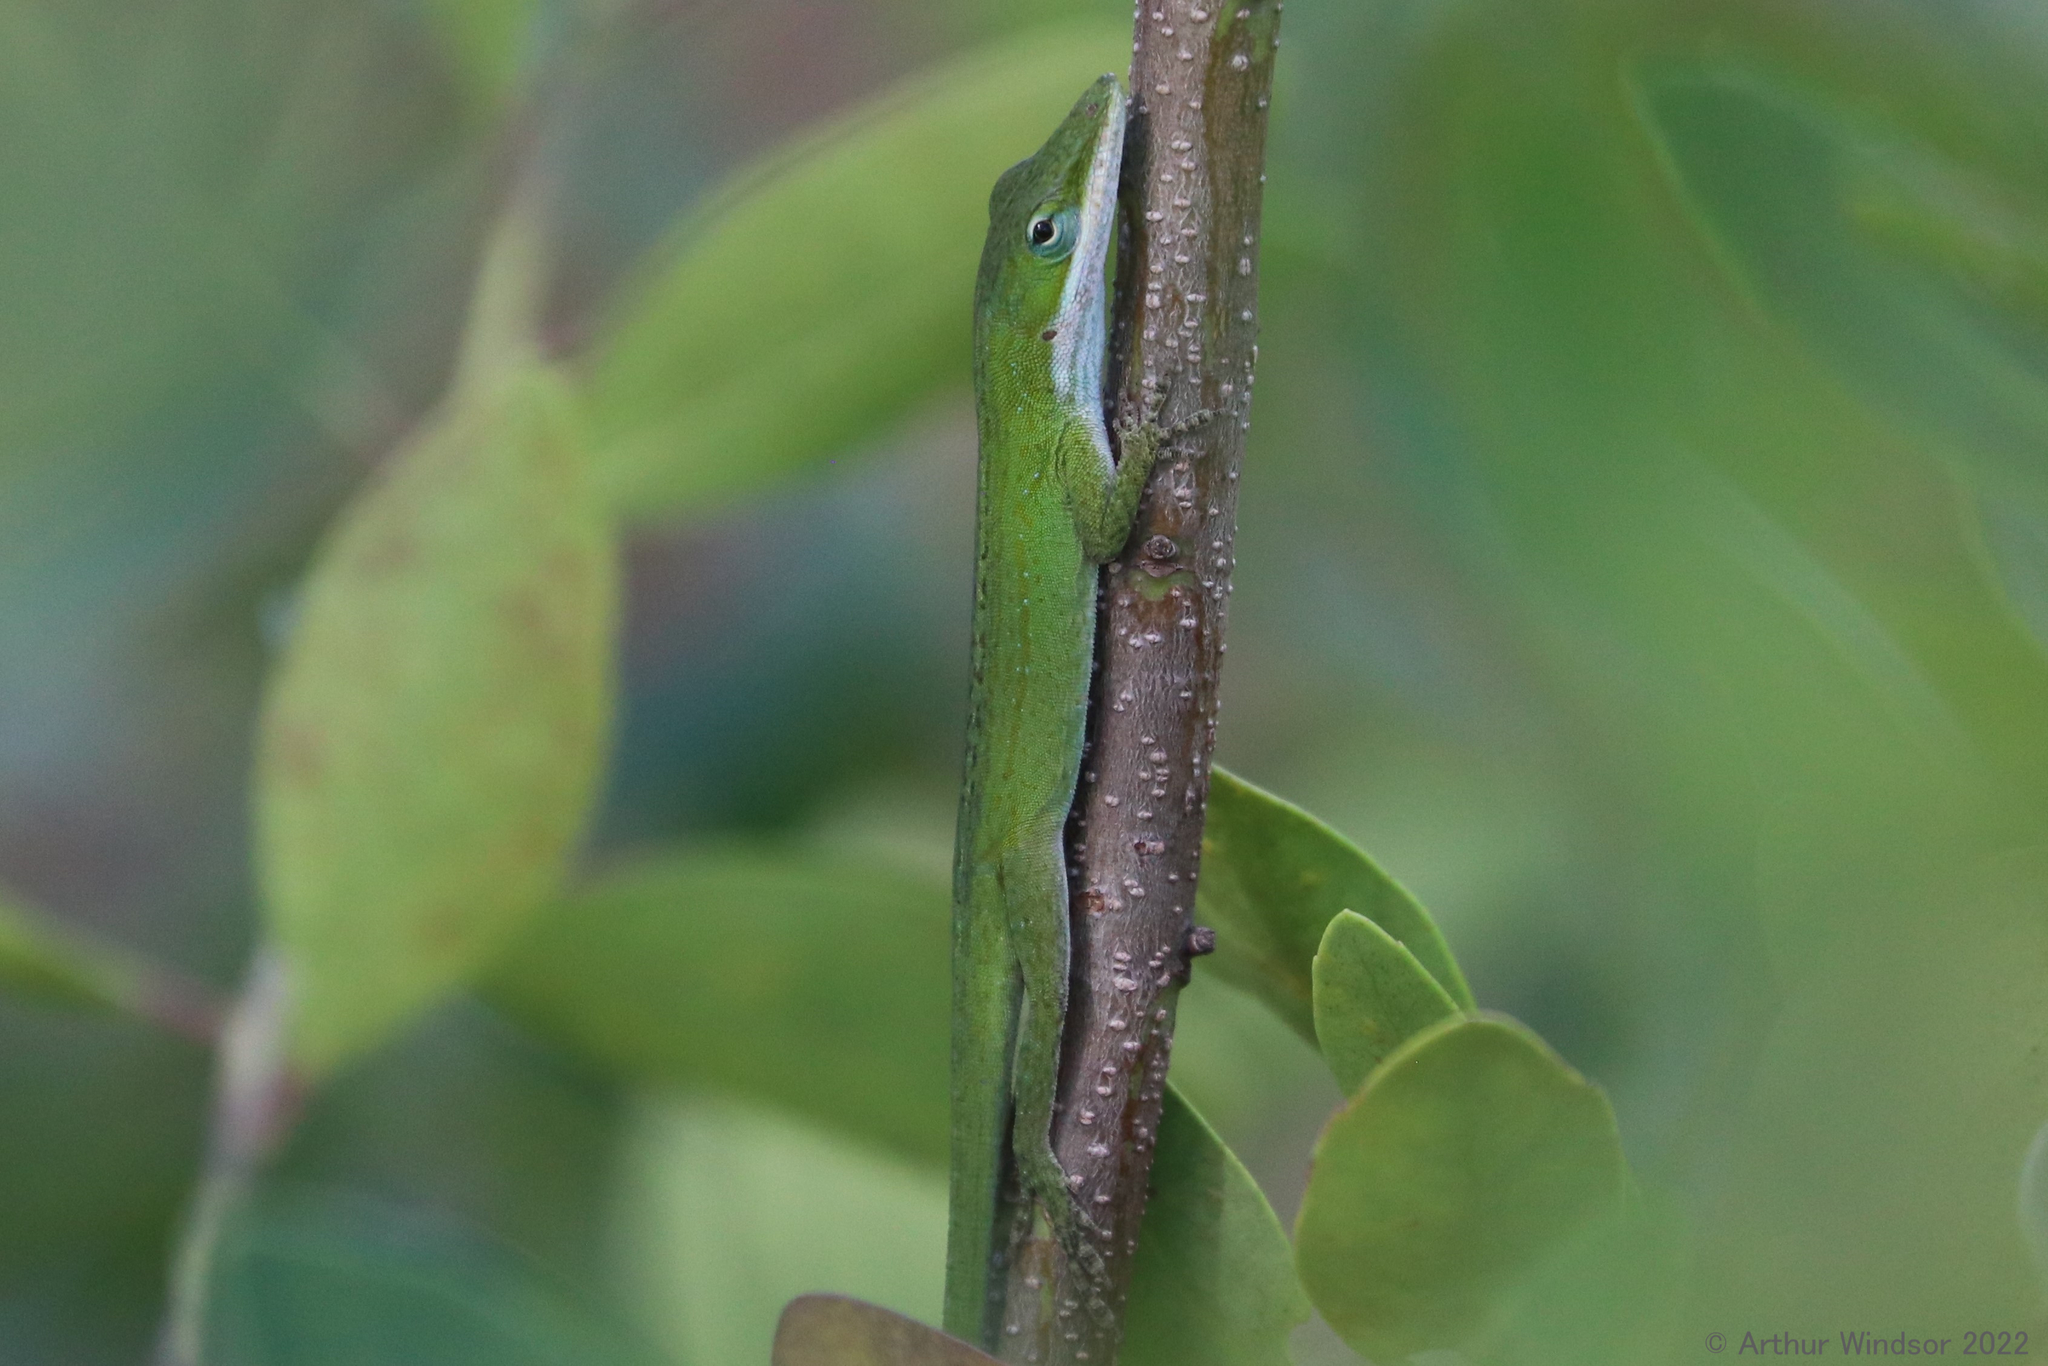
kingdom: Animalia
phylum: Chordata
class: Squamata
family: Dactyloidae
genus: Anolis
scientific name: Anolis carolinensis
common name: Green anole
